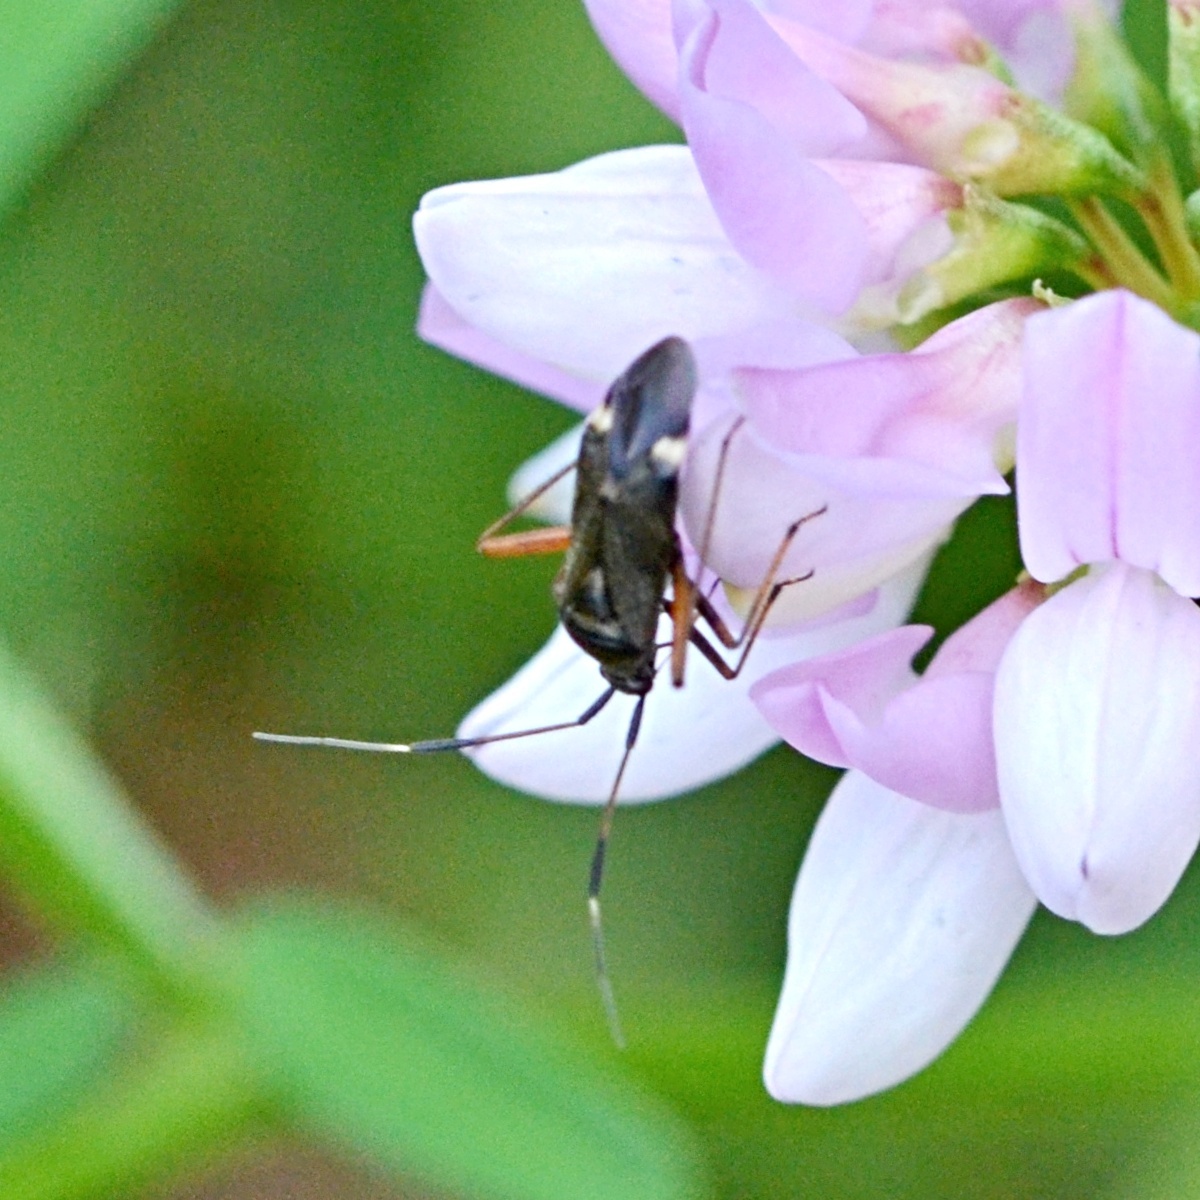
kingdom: Animalia
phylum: Arthropoda
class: Insecta
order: Hemiptera
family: Miridae
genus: Closterotomus
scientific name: Closterotomus biclavatus
